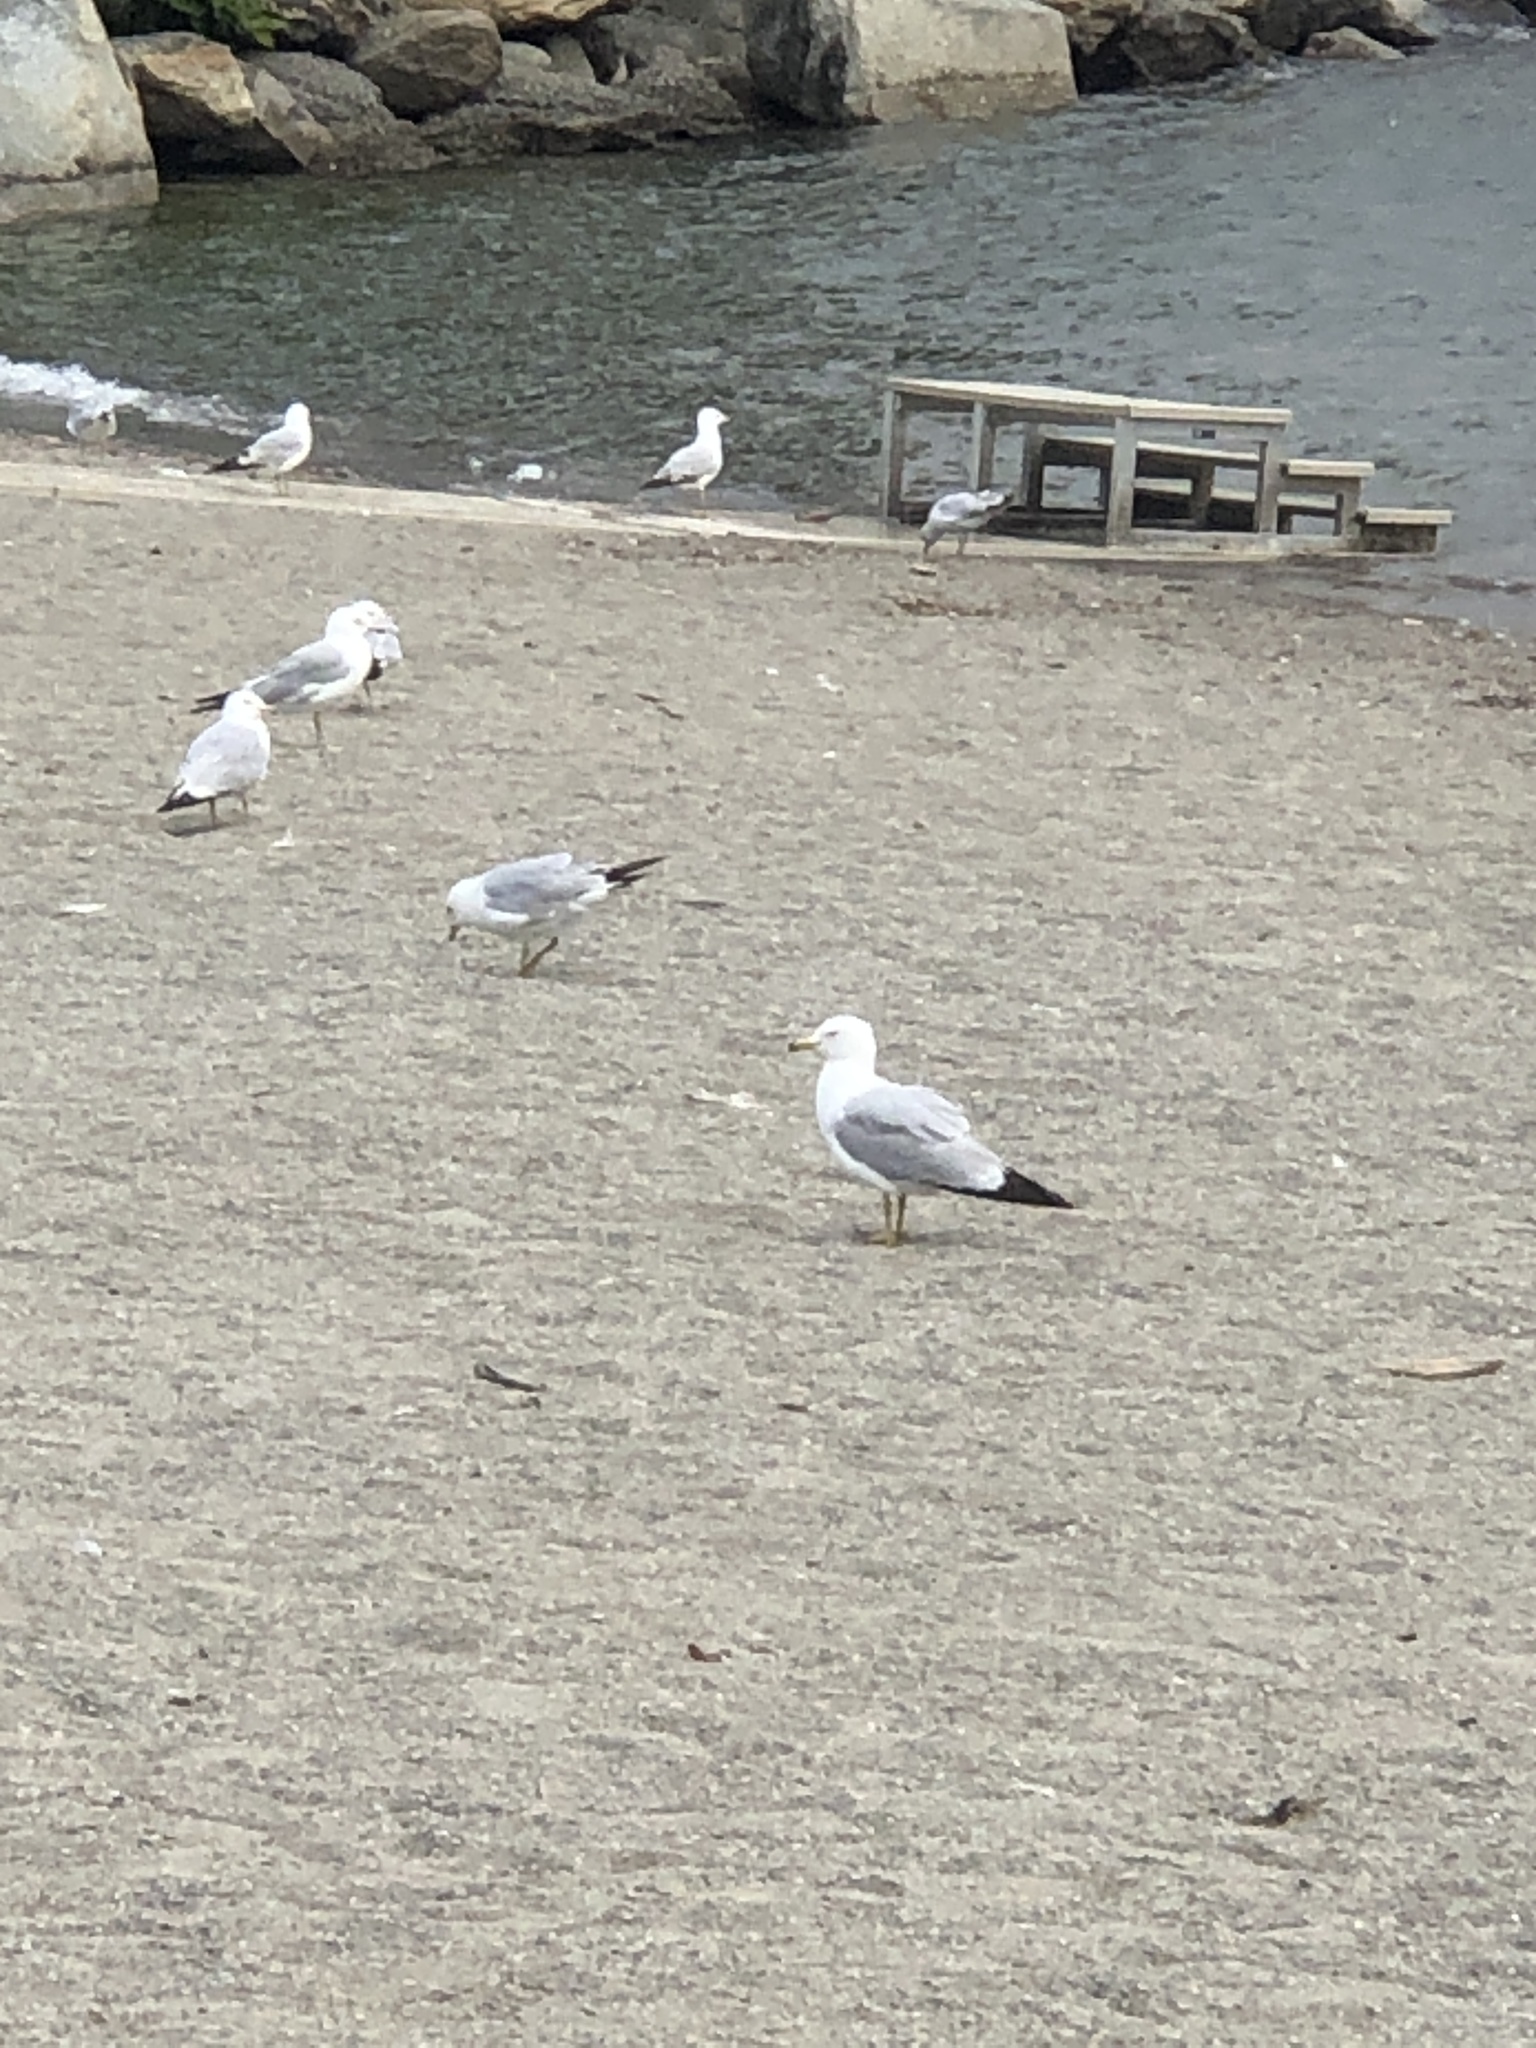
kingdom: Animalia
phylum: Chordata
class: Aves
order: Charadriiformes
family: Laridae
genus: Larus
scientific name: Larus delawarensis
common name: Ring-billed gull
